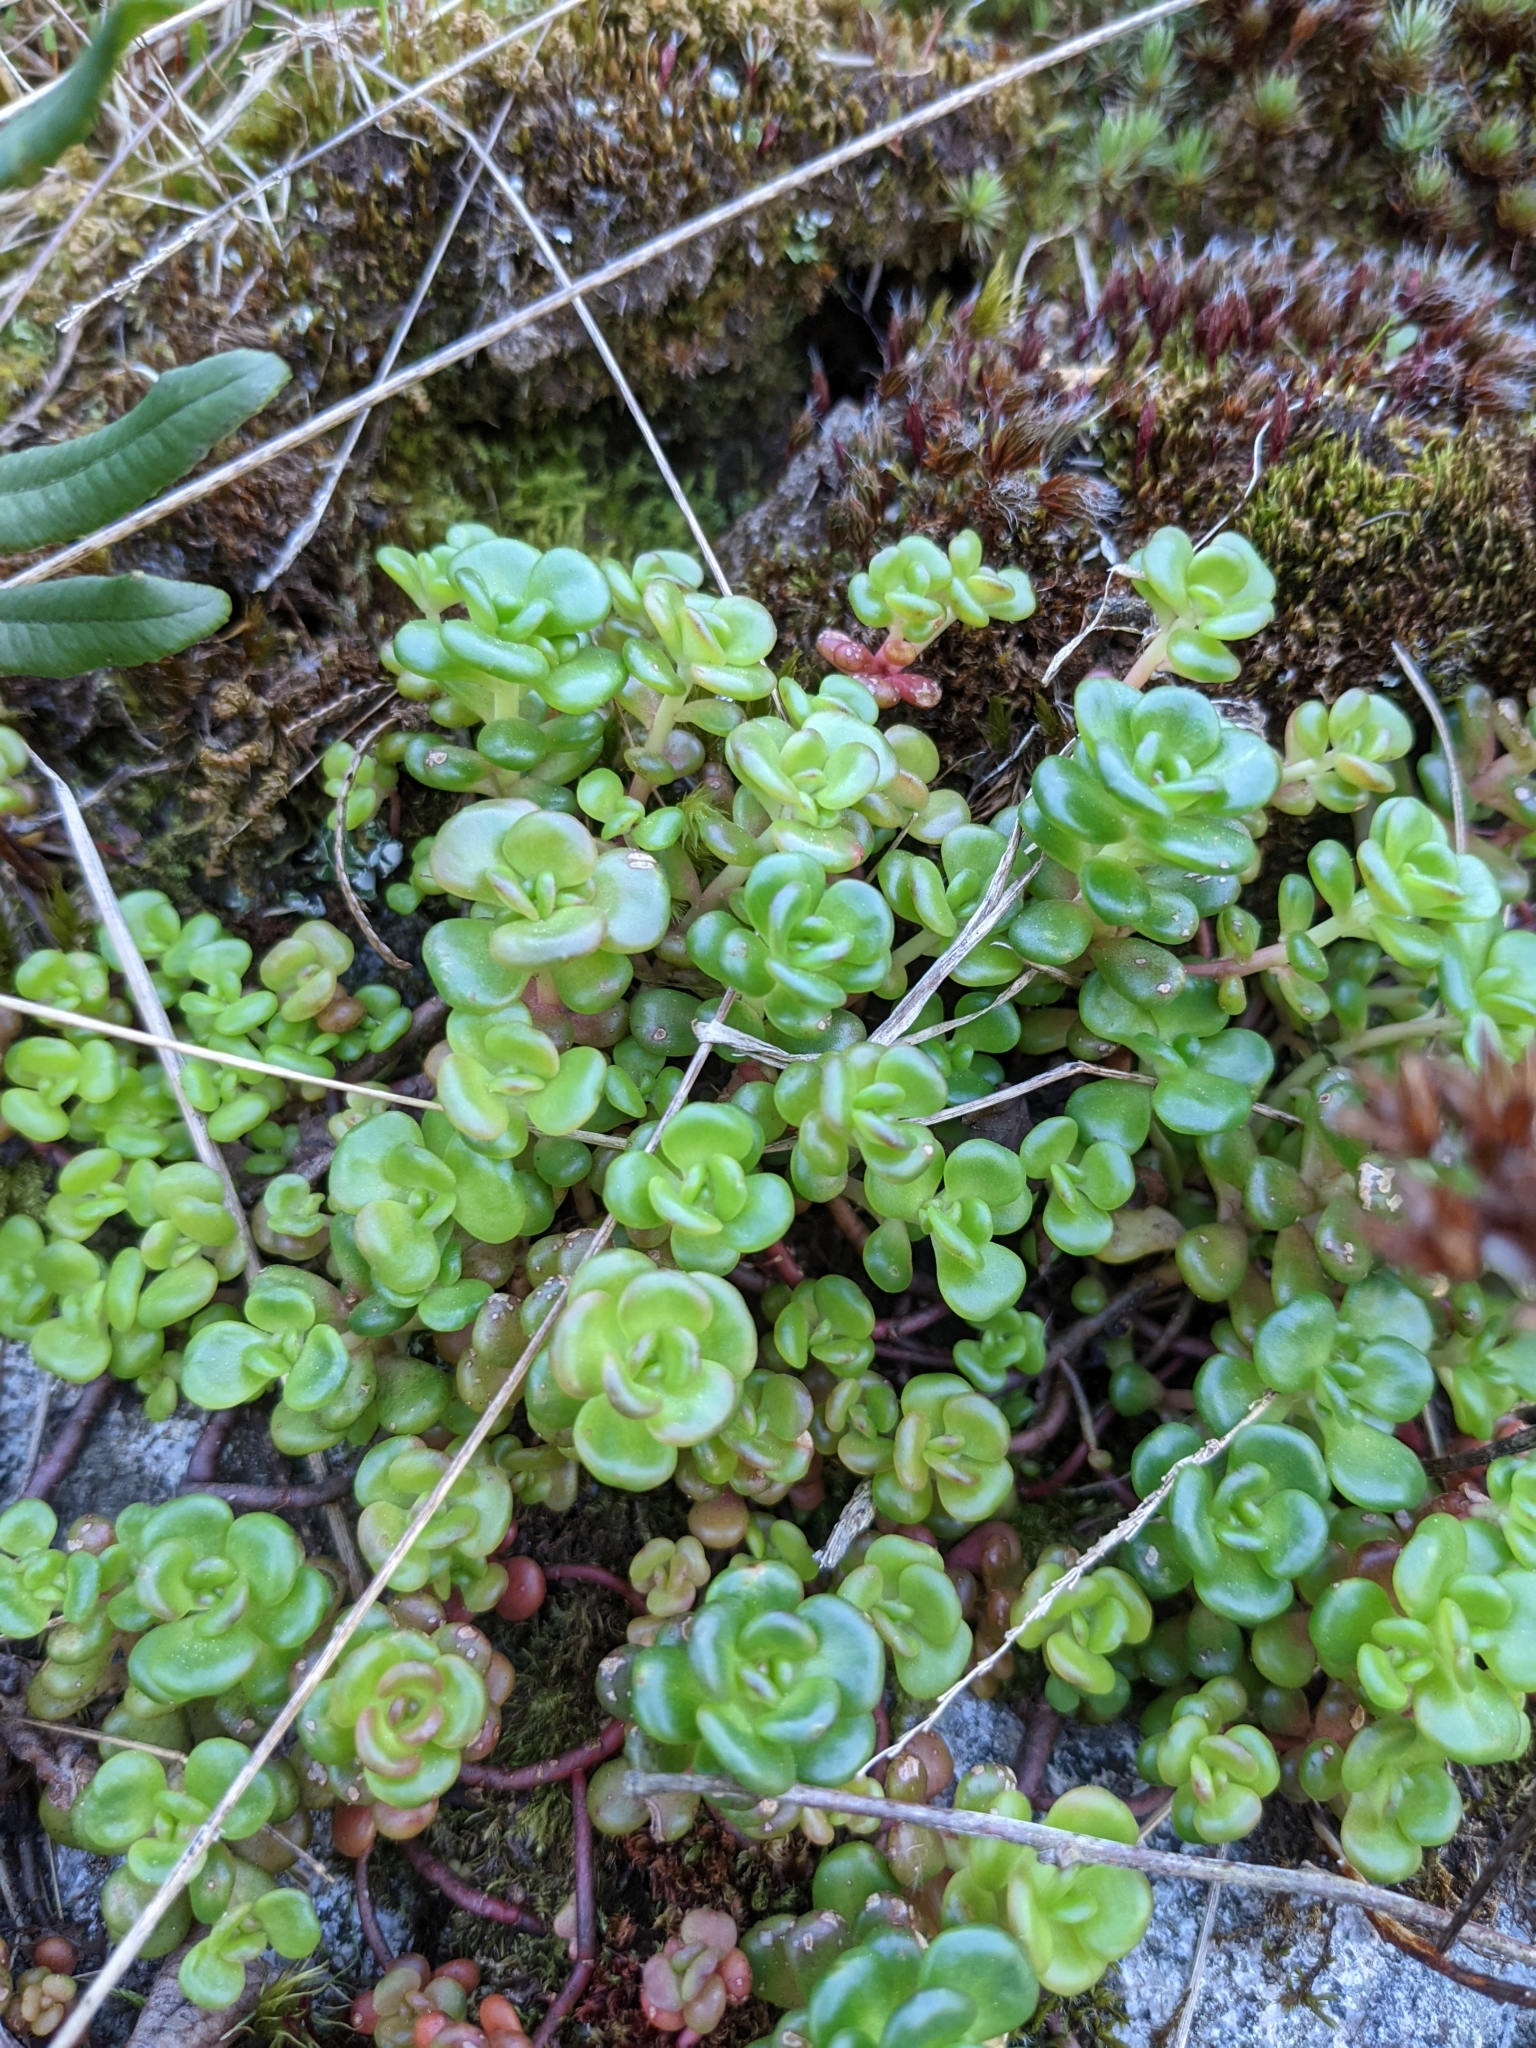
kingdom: Plantae
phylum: Tracheophyta
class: Magnoliopsida
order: Saxifragales
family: Crassulaceae
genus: Sedum
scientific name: Sedum oreganum
